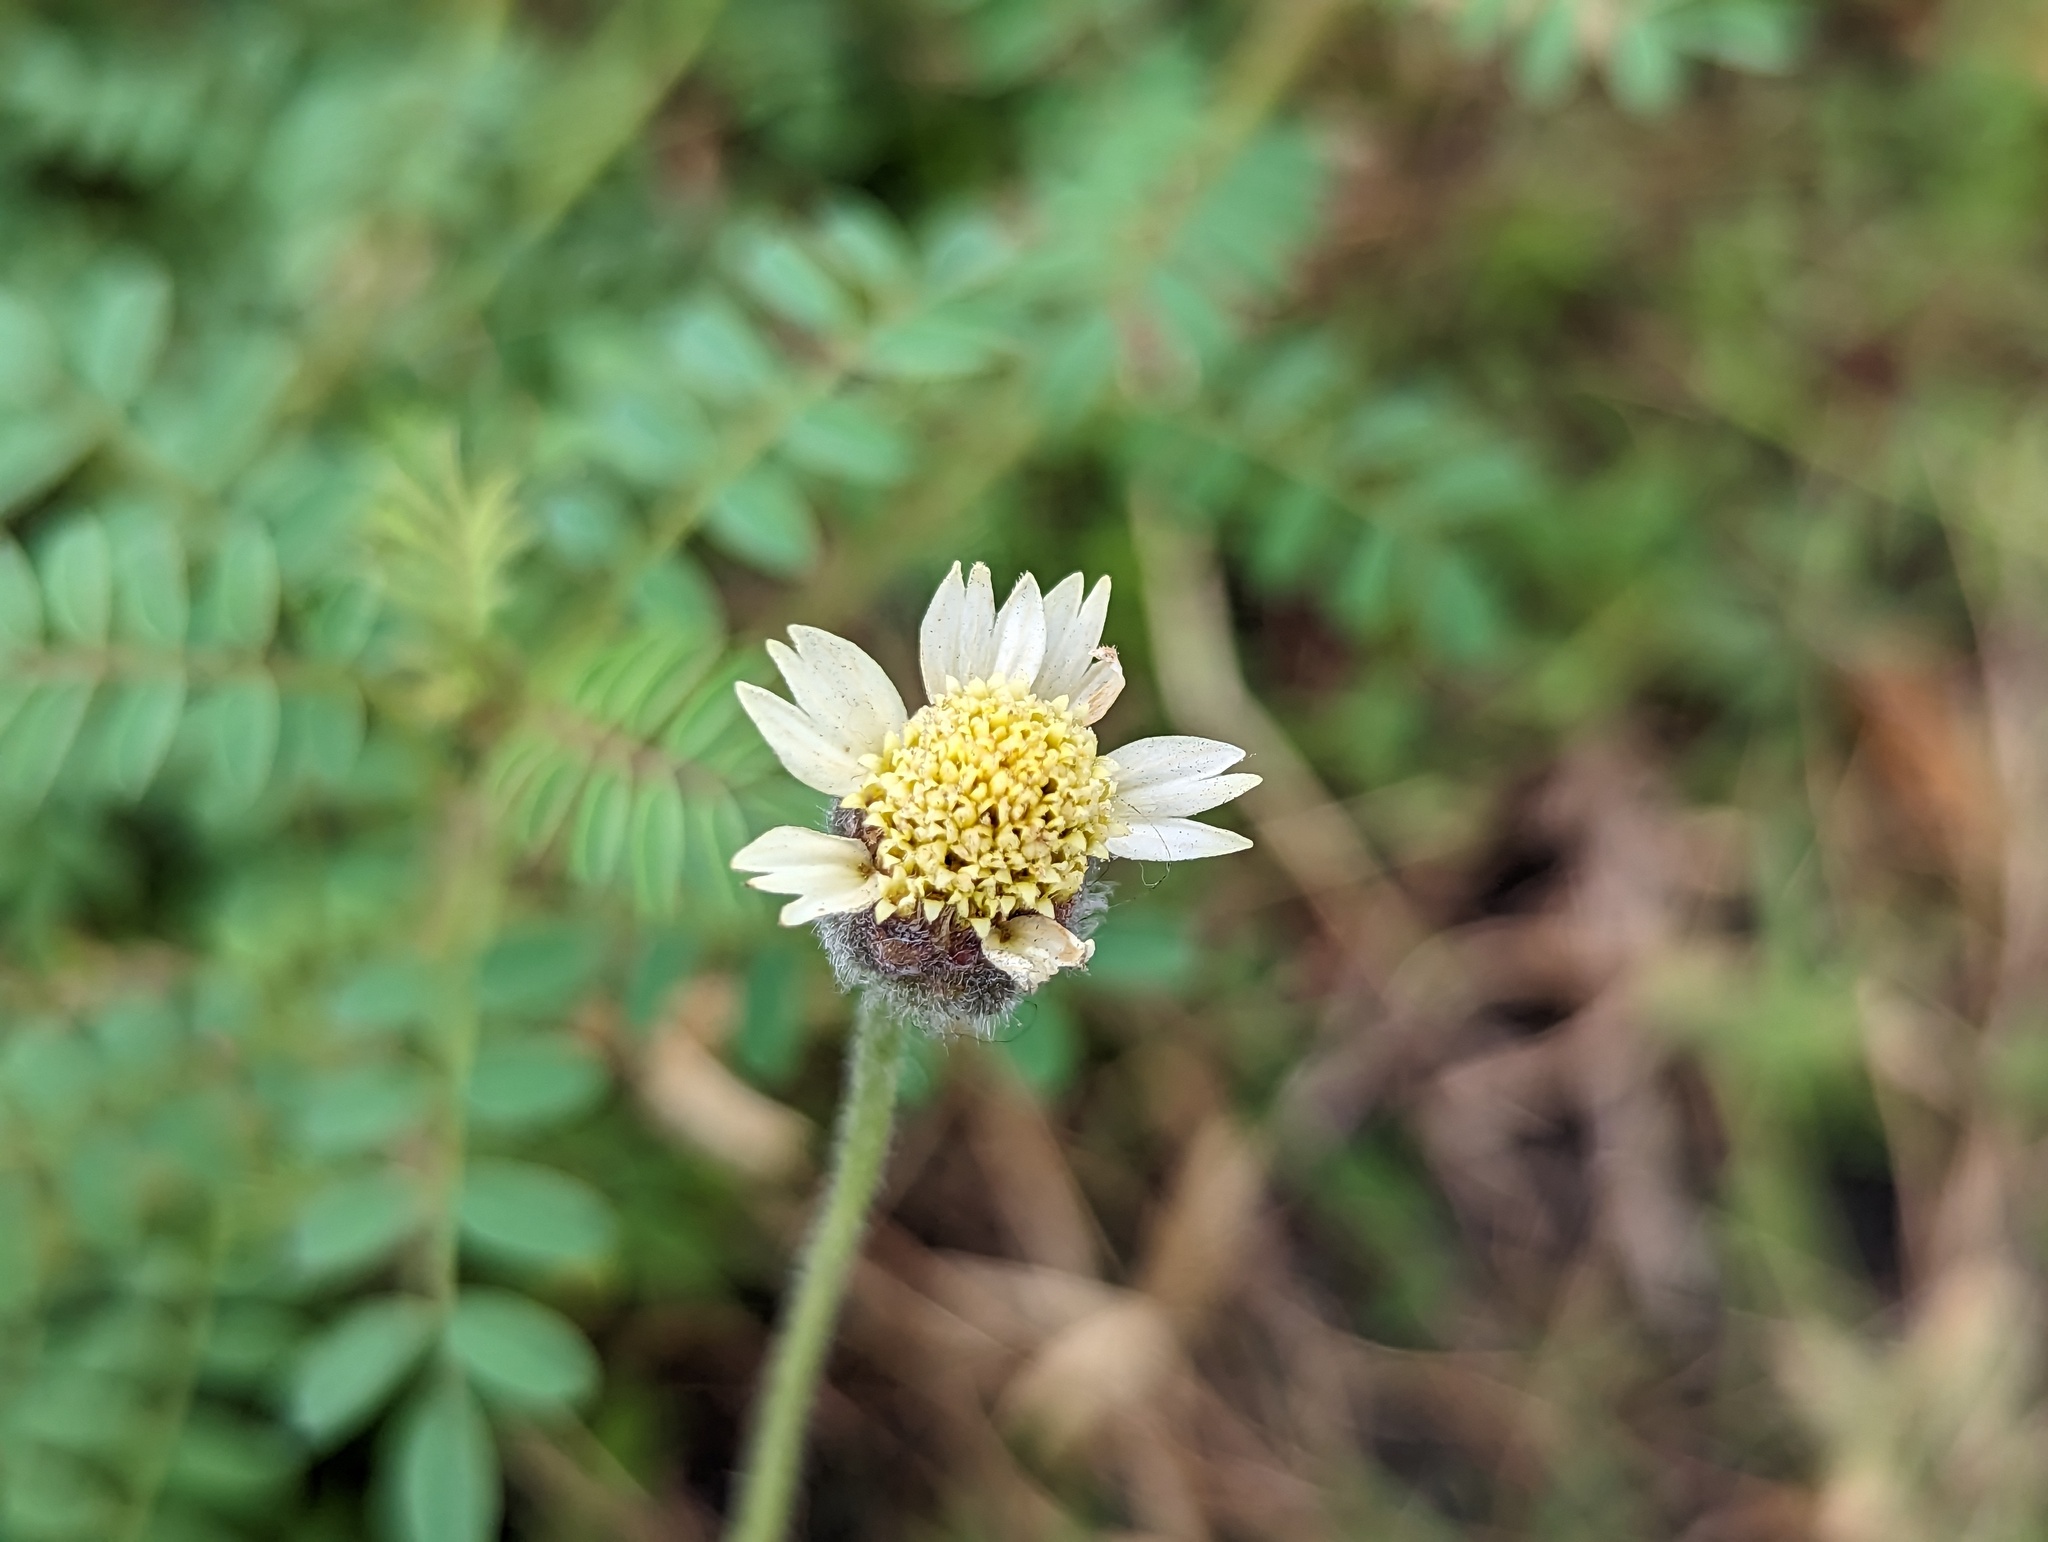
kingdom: Plantae
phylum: Tracheophyta
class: Magnoliopsida
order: Asterales
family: Asteraceae
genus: Tridax
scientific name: Tridax procumbens
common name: Coatbuttons
